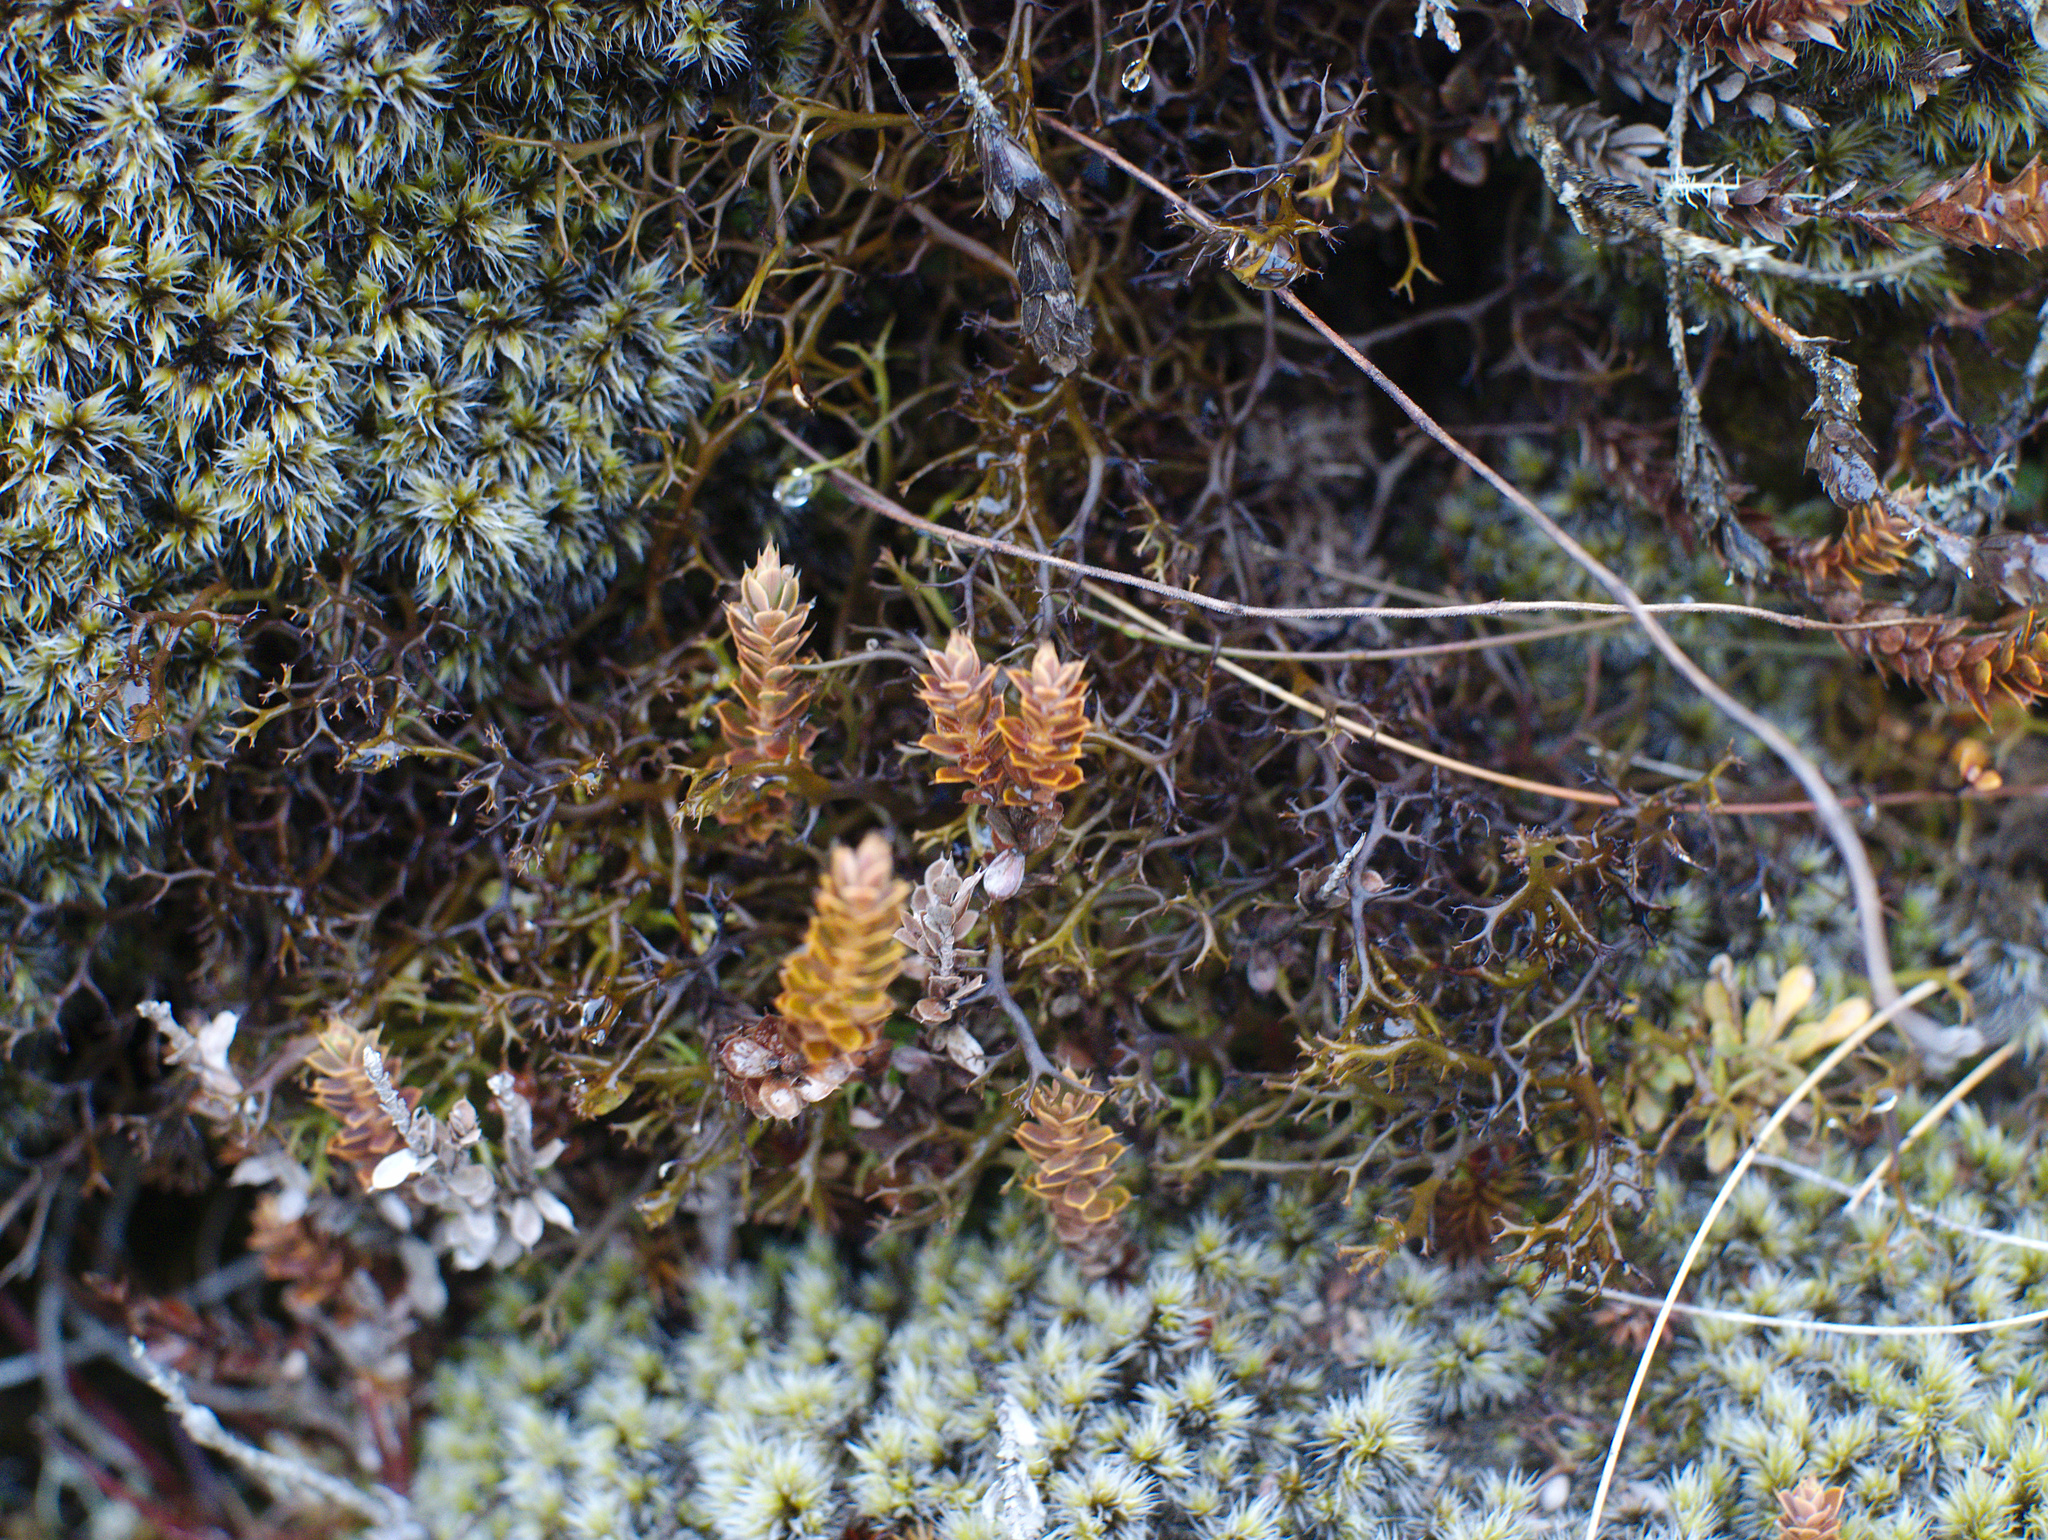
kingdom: Plantae
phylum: Tracheophyta
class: Magnoliopsida
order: Ericales
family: Ericaceae
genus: Styphelia
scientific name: Styphelia nesophila
